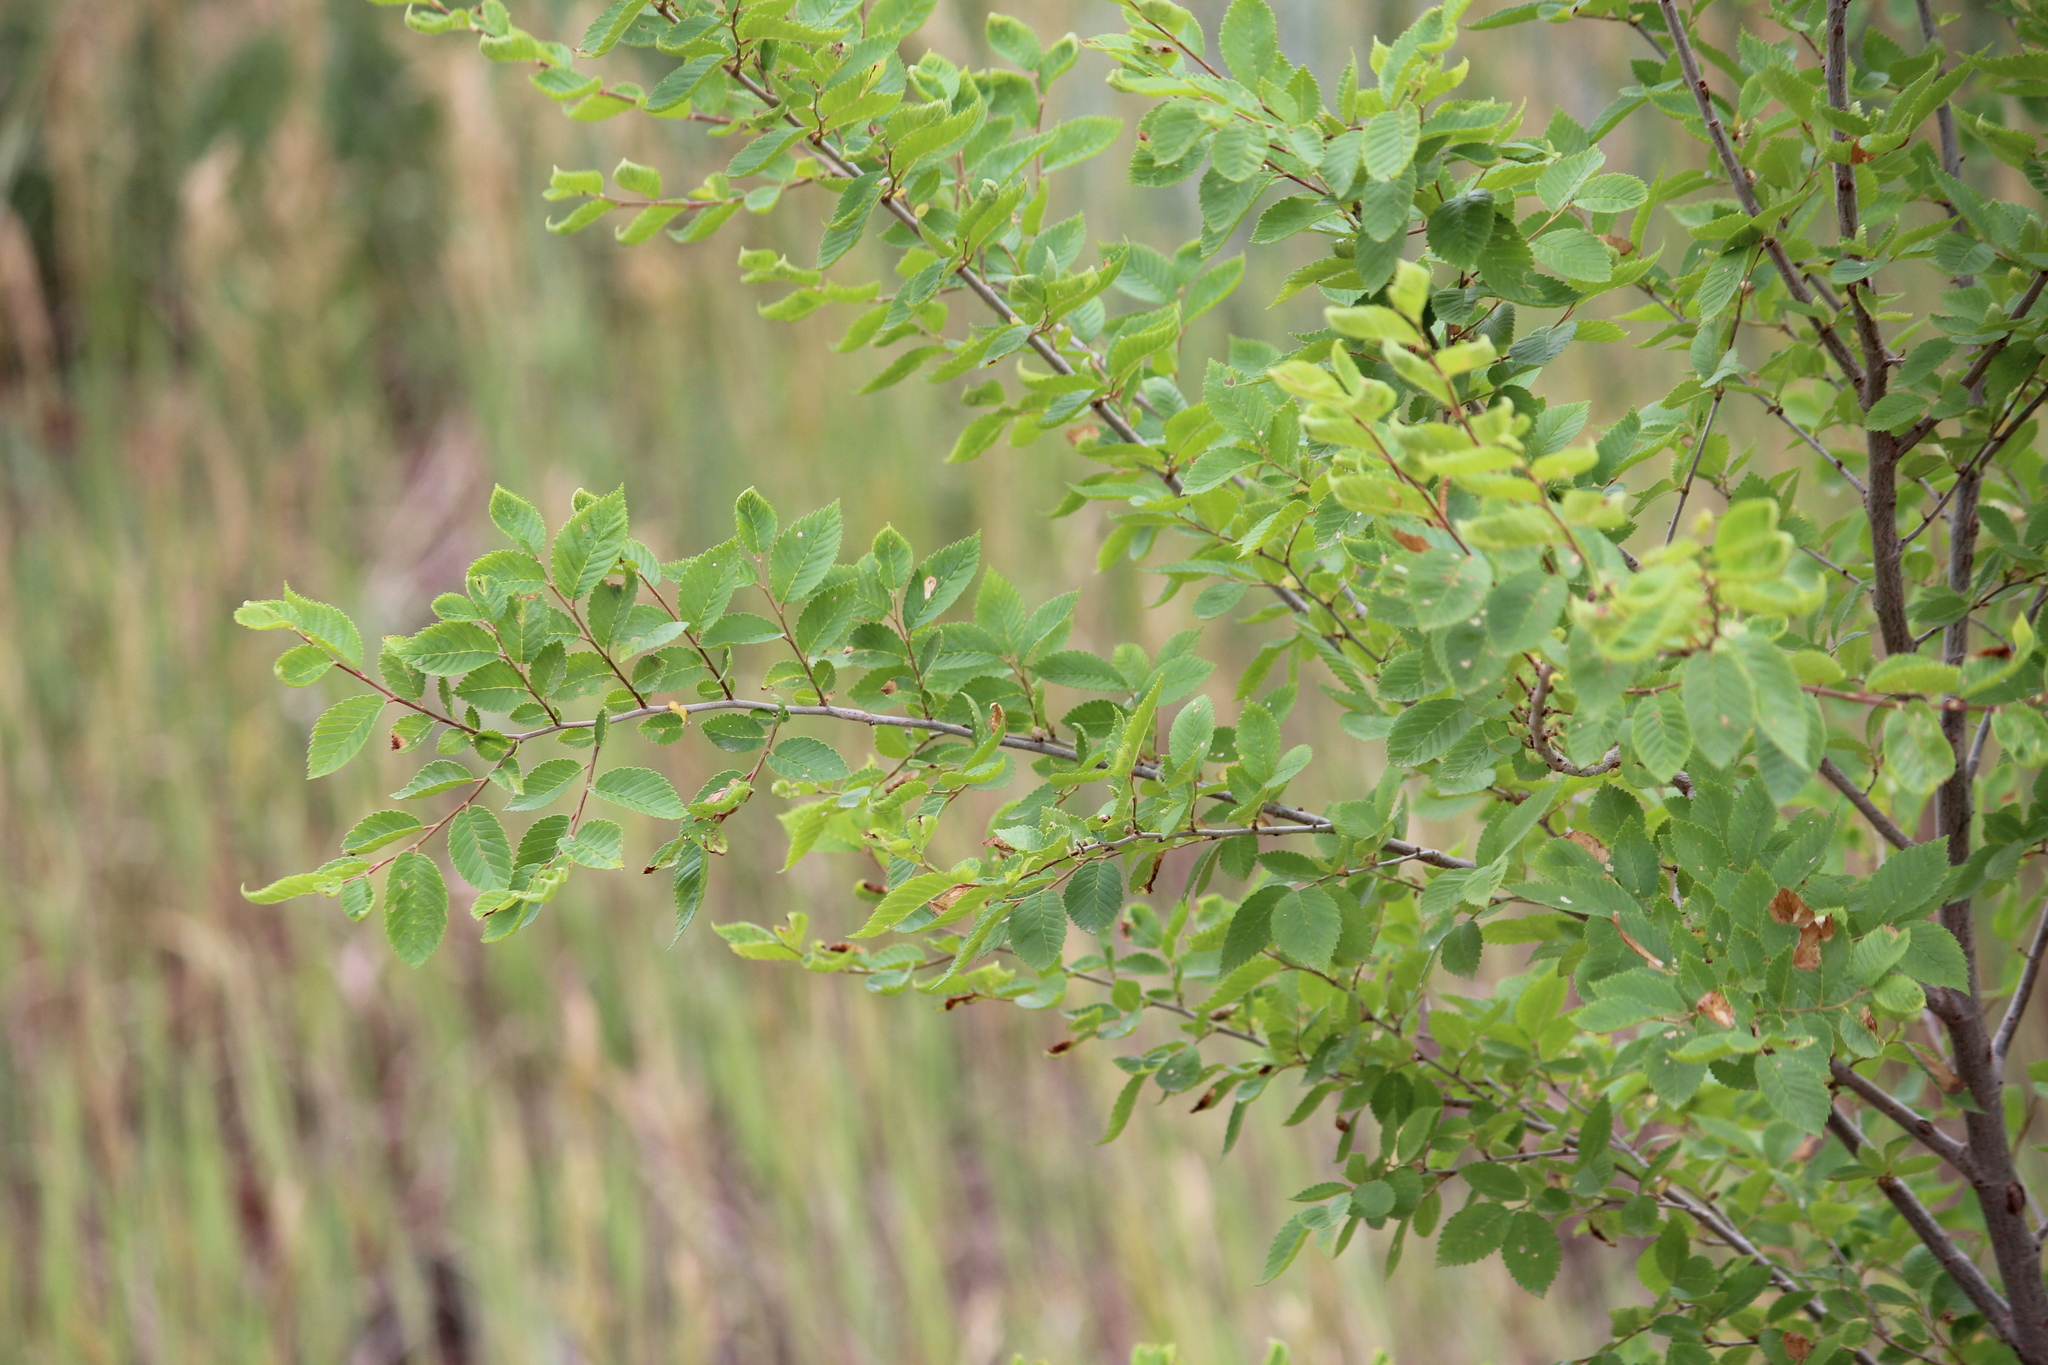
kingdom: Plantae
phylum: Tracheophyta
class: Magnoliopsida
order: Rosales
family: Ulmaceae
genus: Ulmus
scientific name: Ulmus pumila
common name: Siberian elm
